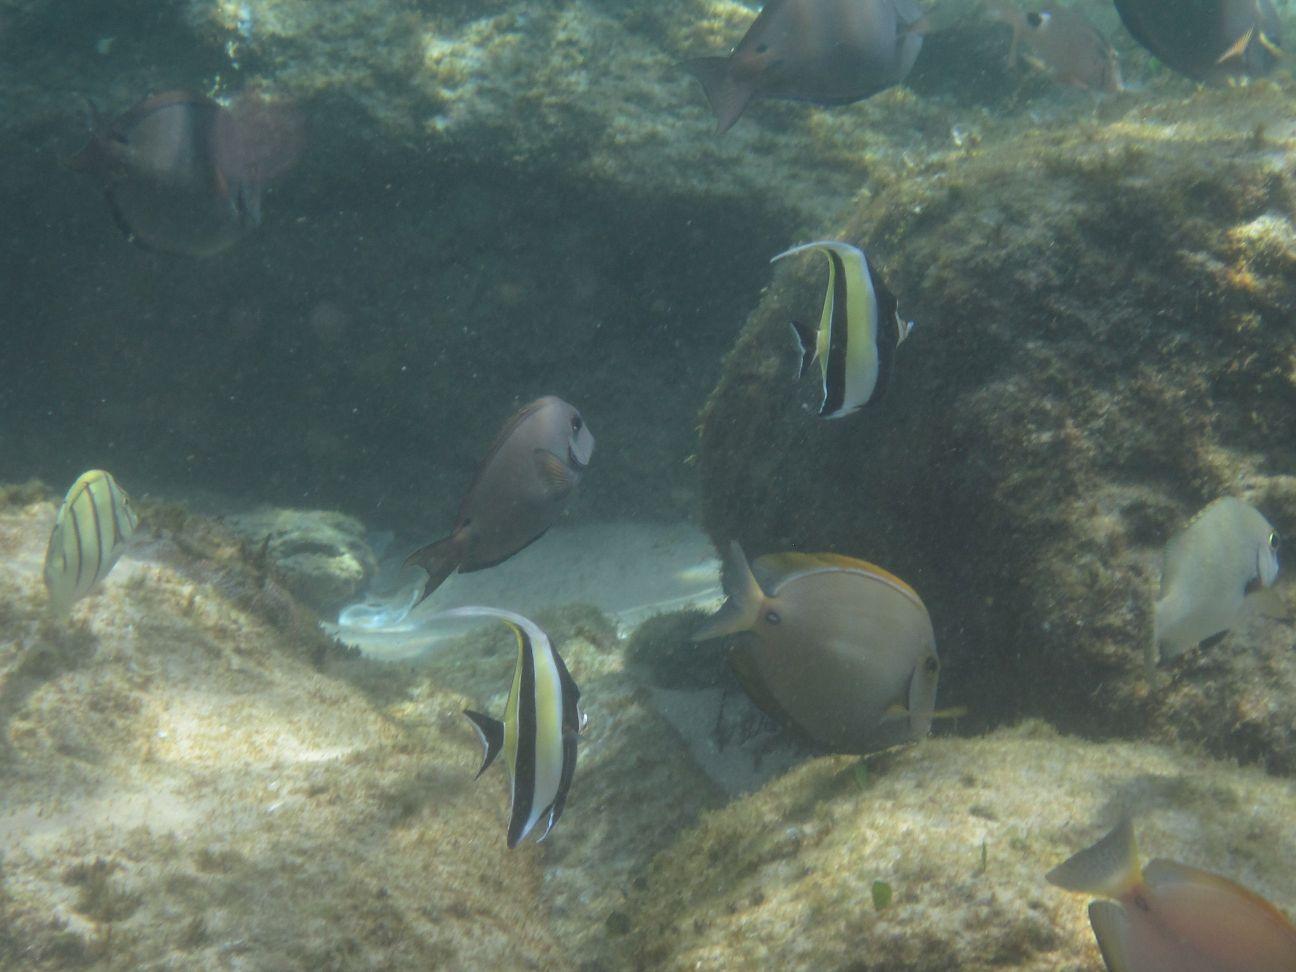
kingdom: Animalia
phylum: Chordata
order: Perciformes
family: Zanclidae
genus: Zanclus
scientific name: Zanclus cornutus
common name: Moorish idol
